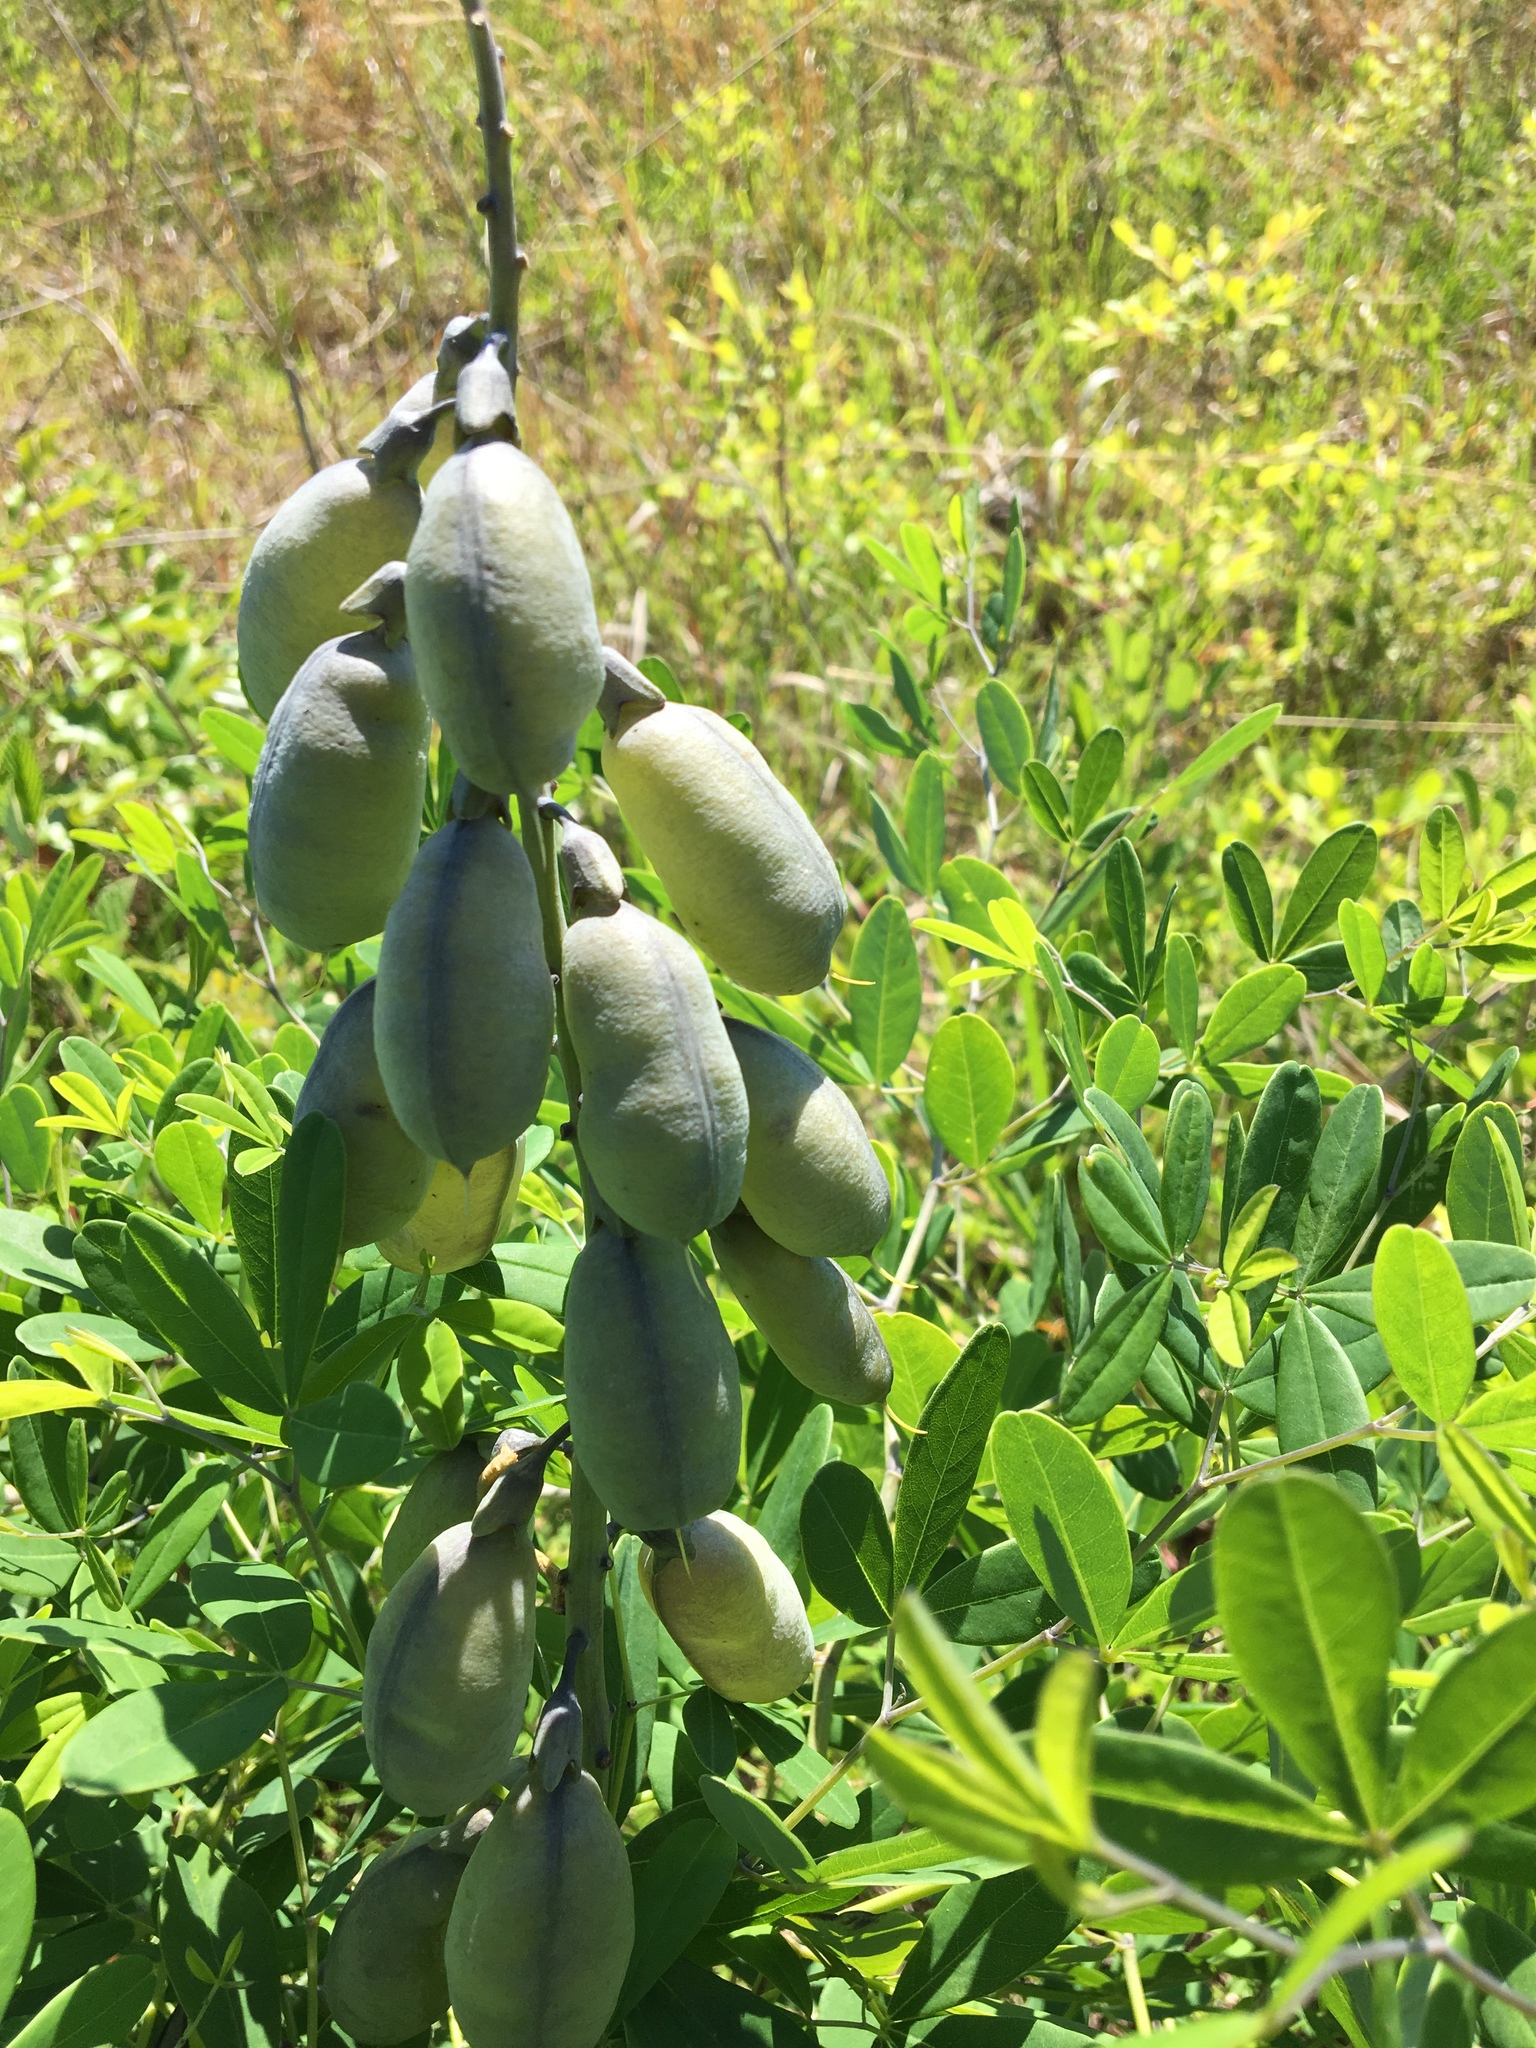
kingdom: Plantae
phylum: Tracheophyta
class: Magnoliopsida
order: Fabales
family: Fabaceae
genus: Baptisia
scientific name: Baptisia alba
